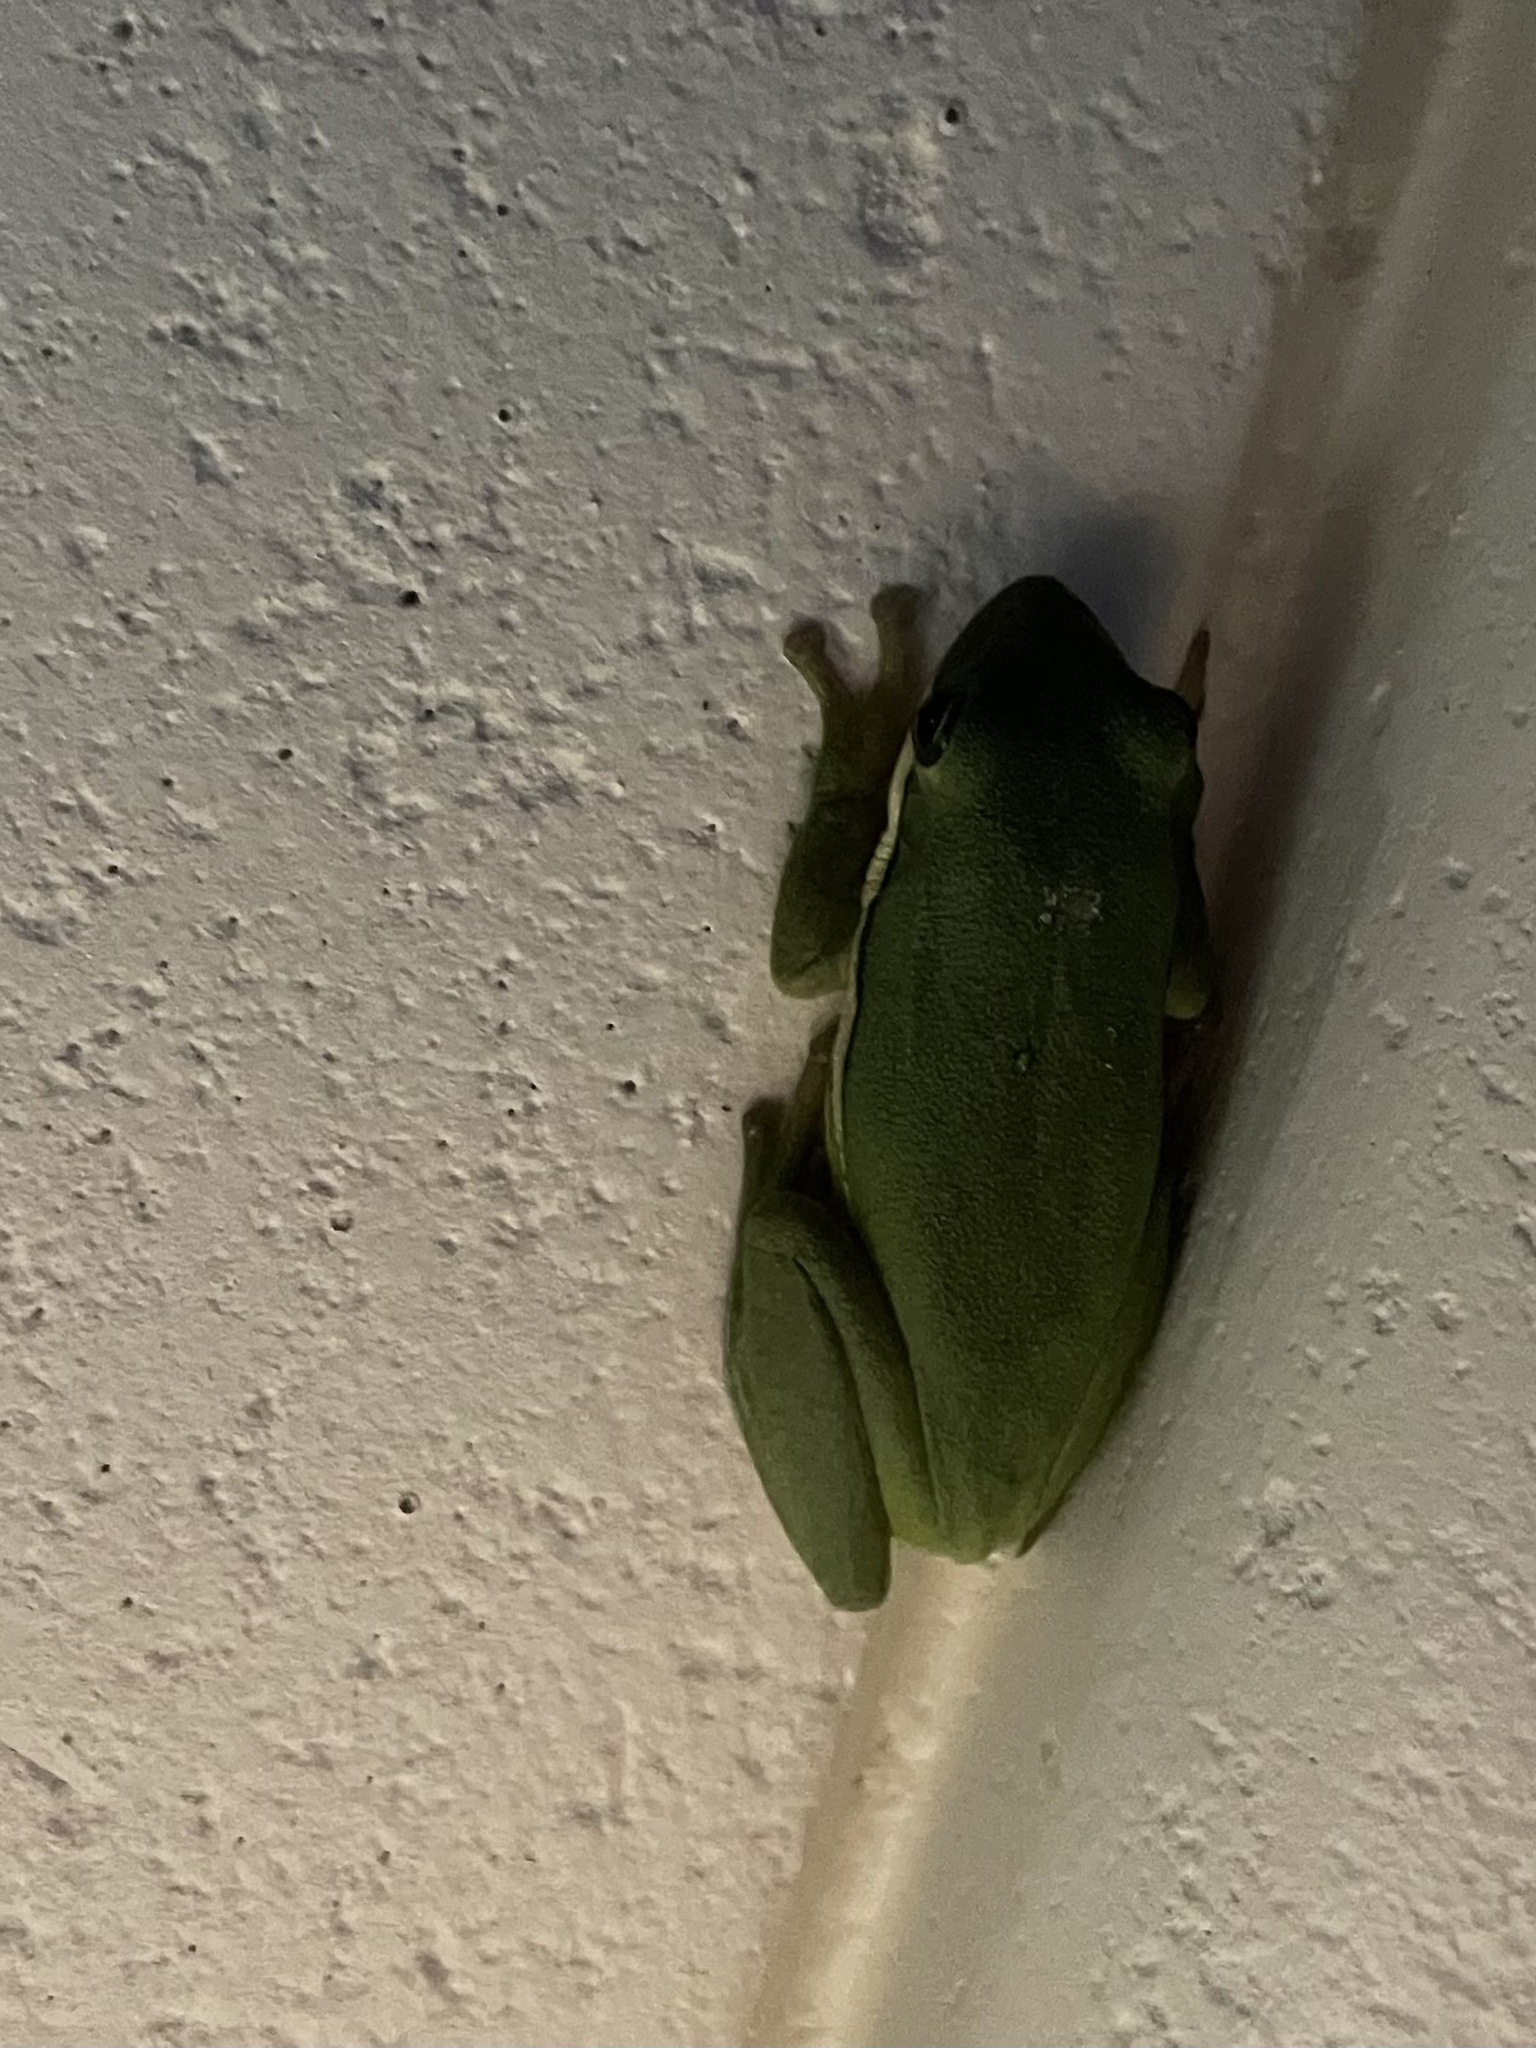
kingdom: Animalia
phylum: Chordata
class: Amphibia
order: Anura
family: Hylidae
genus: Dryophytes
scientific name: Dryophytes cinereus
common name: Green treefrog
